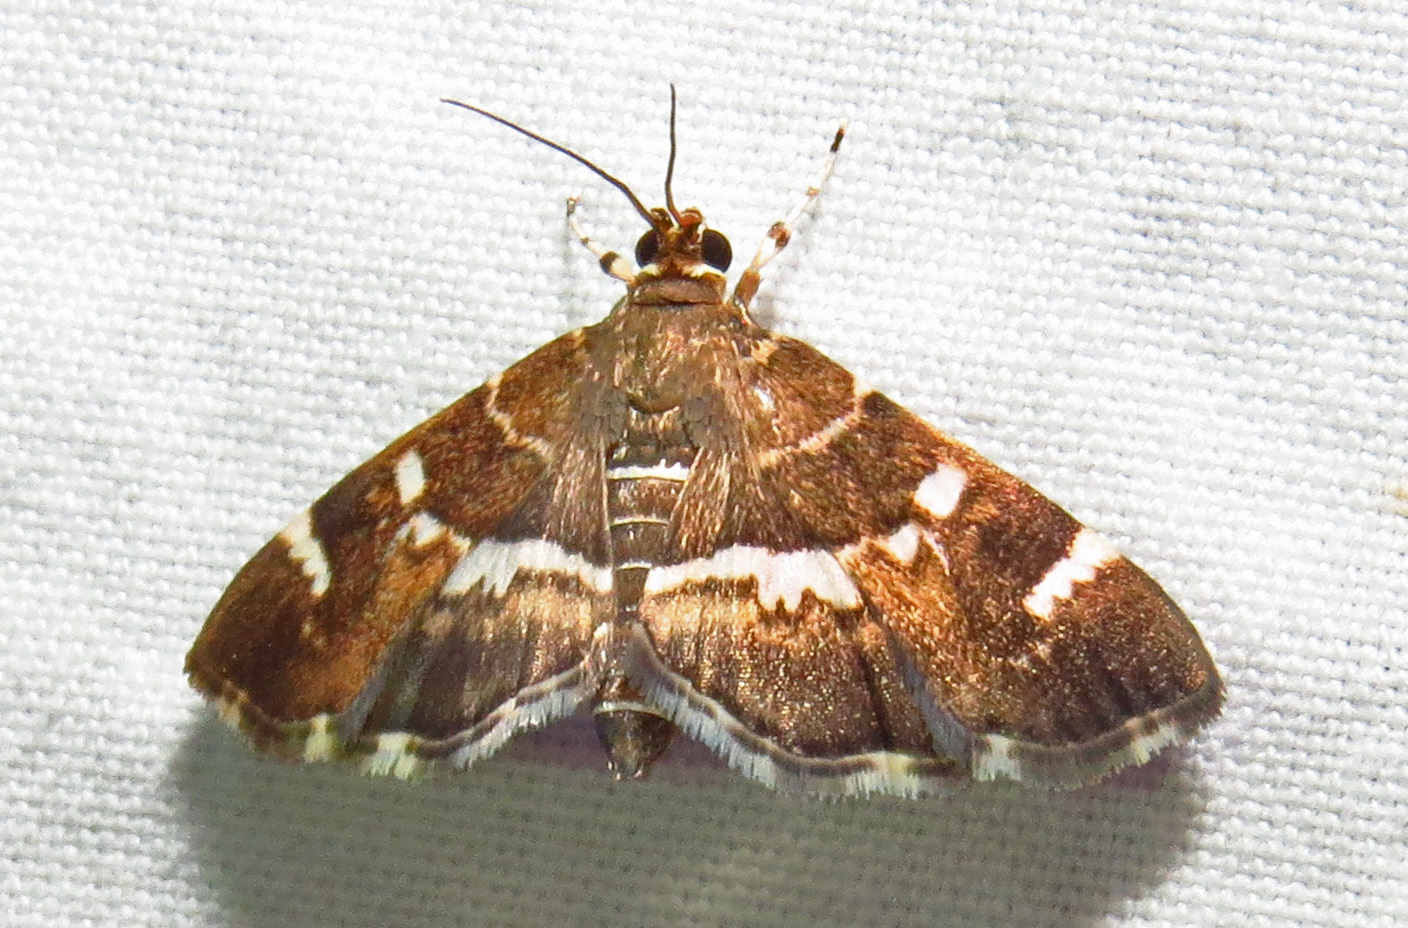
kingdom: Animalia
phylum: Arthropoda
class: Insecta
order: Lepidoptera
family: Crambidae
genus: Hymenia
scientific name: Hymenia perspectalis
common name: Spotted beet webworm
